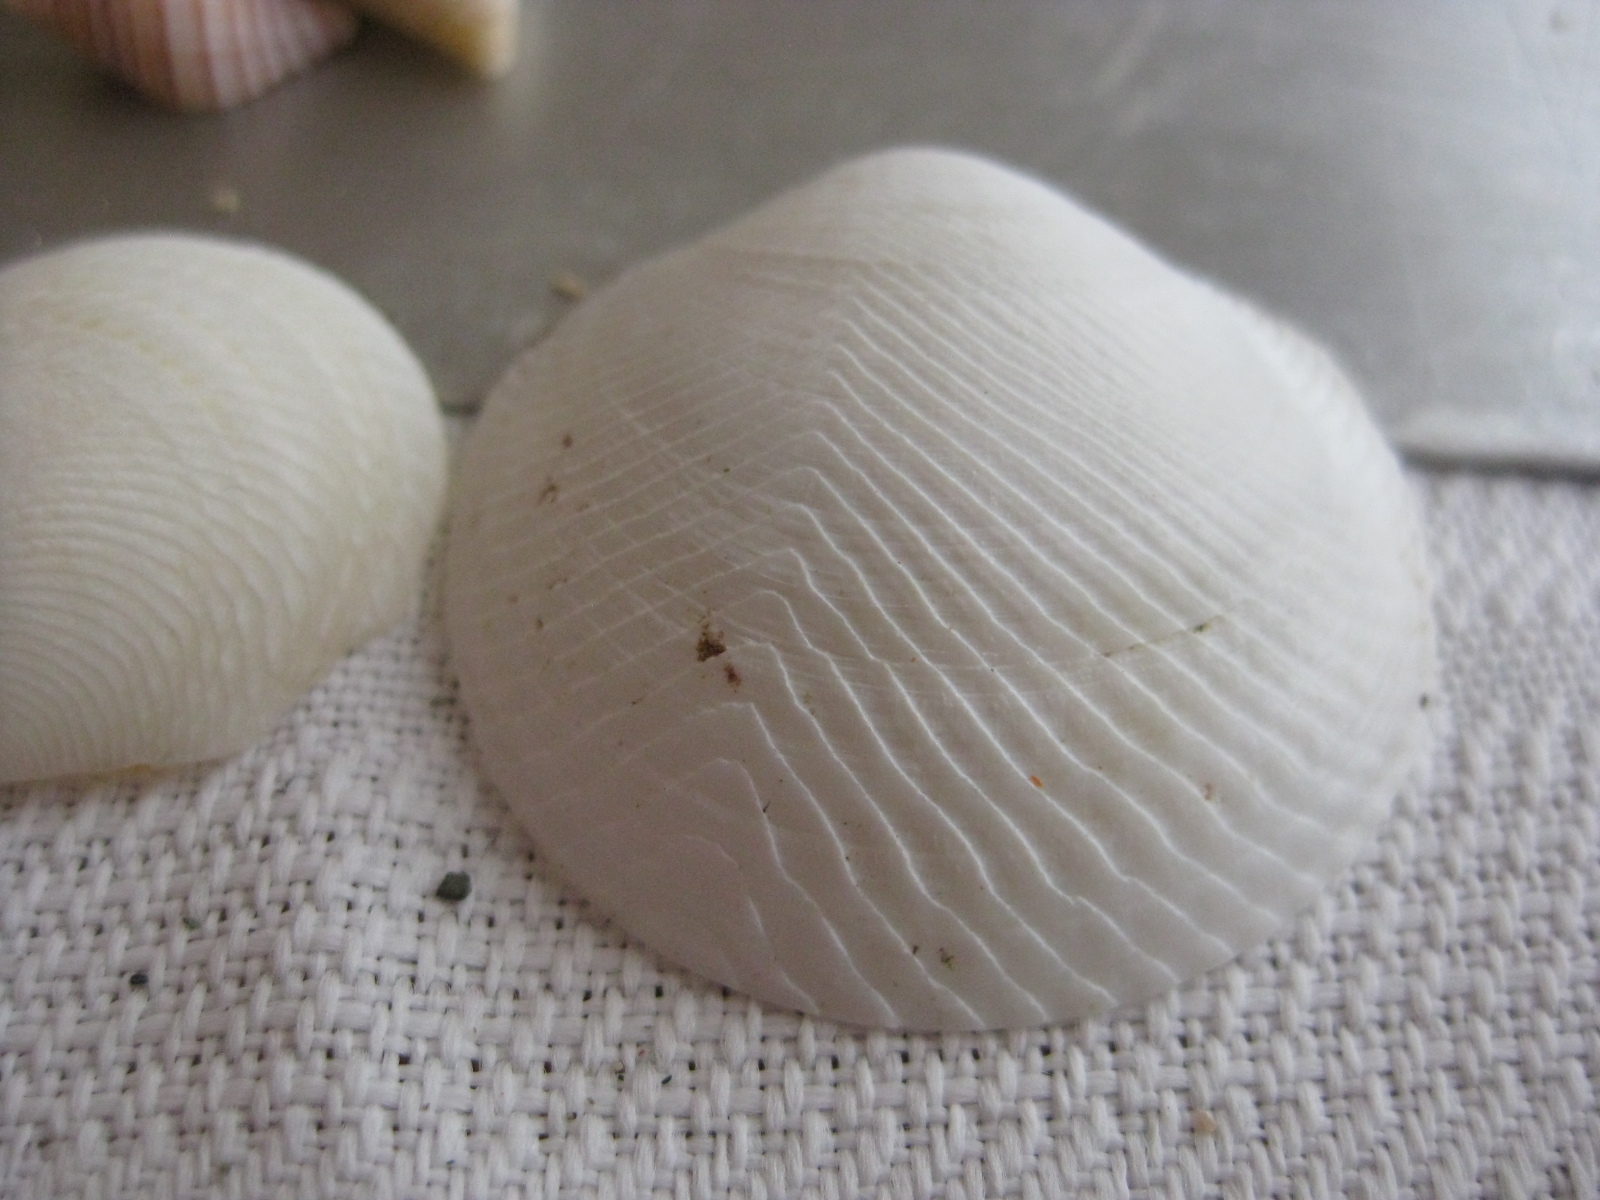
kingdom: Animalia
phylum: Mollusca
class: Bivalvia
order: Lucinida
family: Lucinidae
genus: Divalucina
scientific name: Divalucina cumingi
